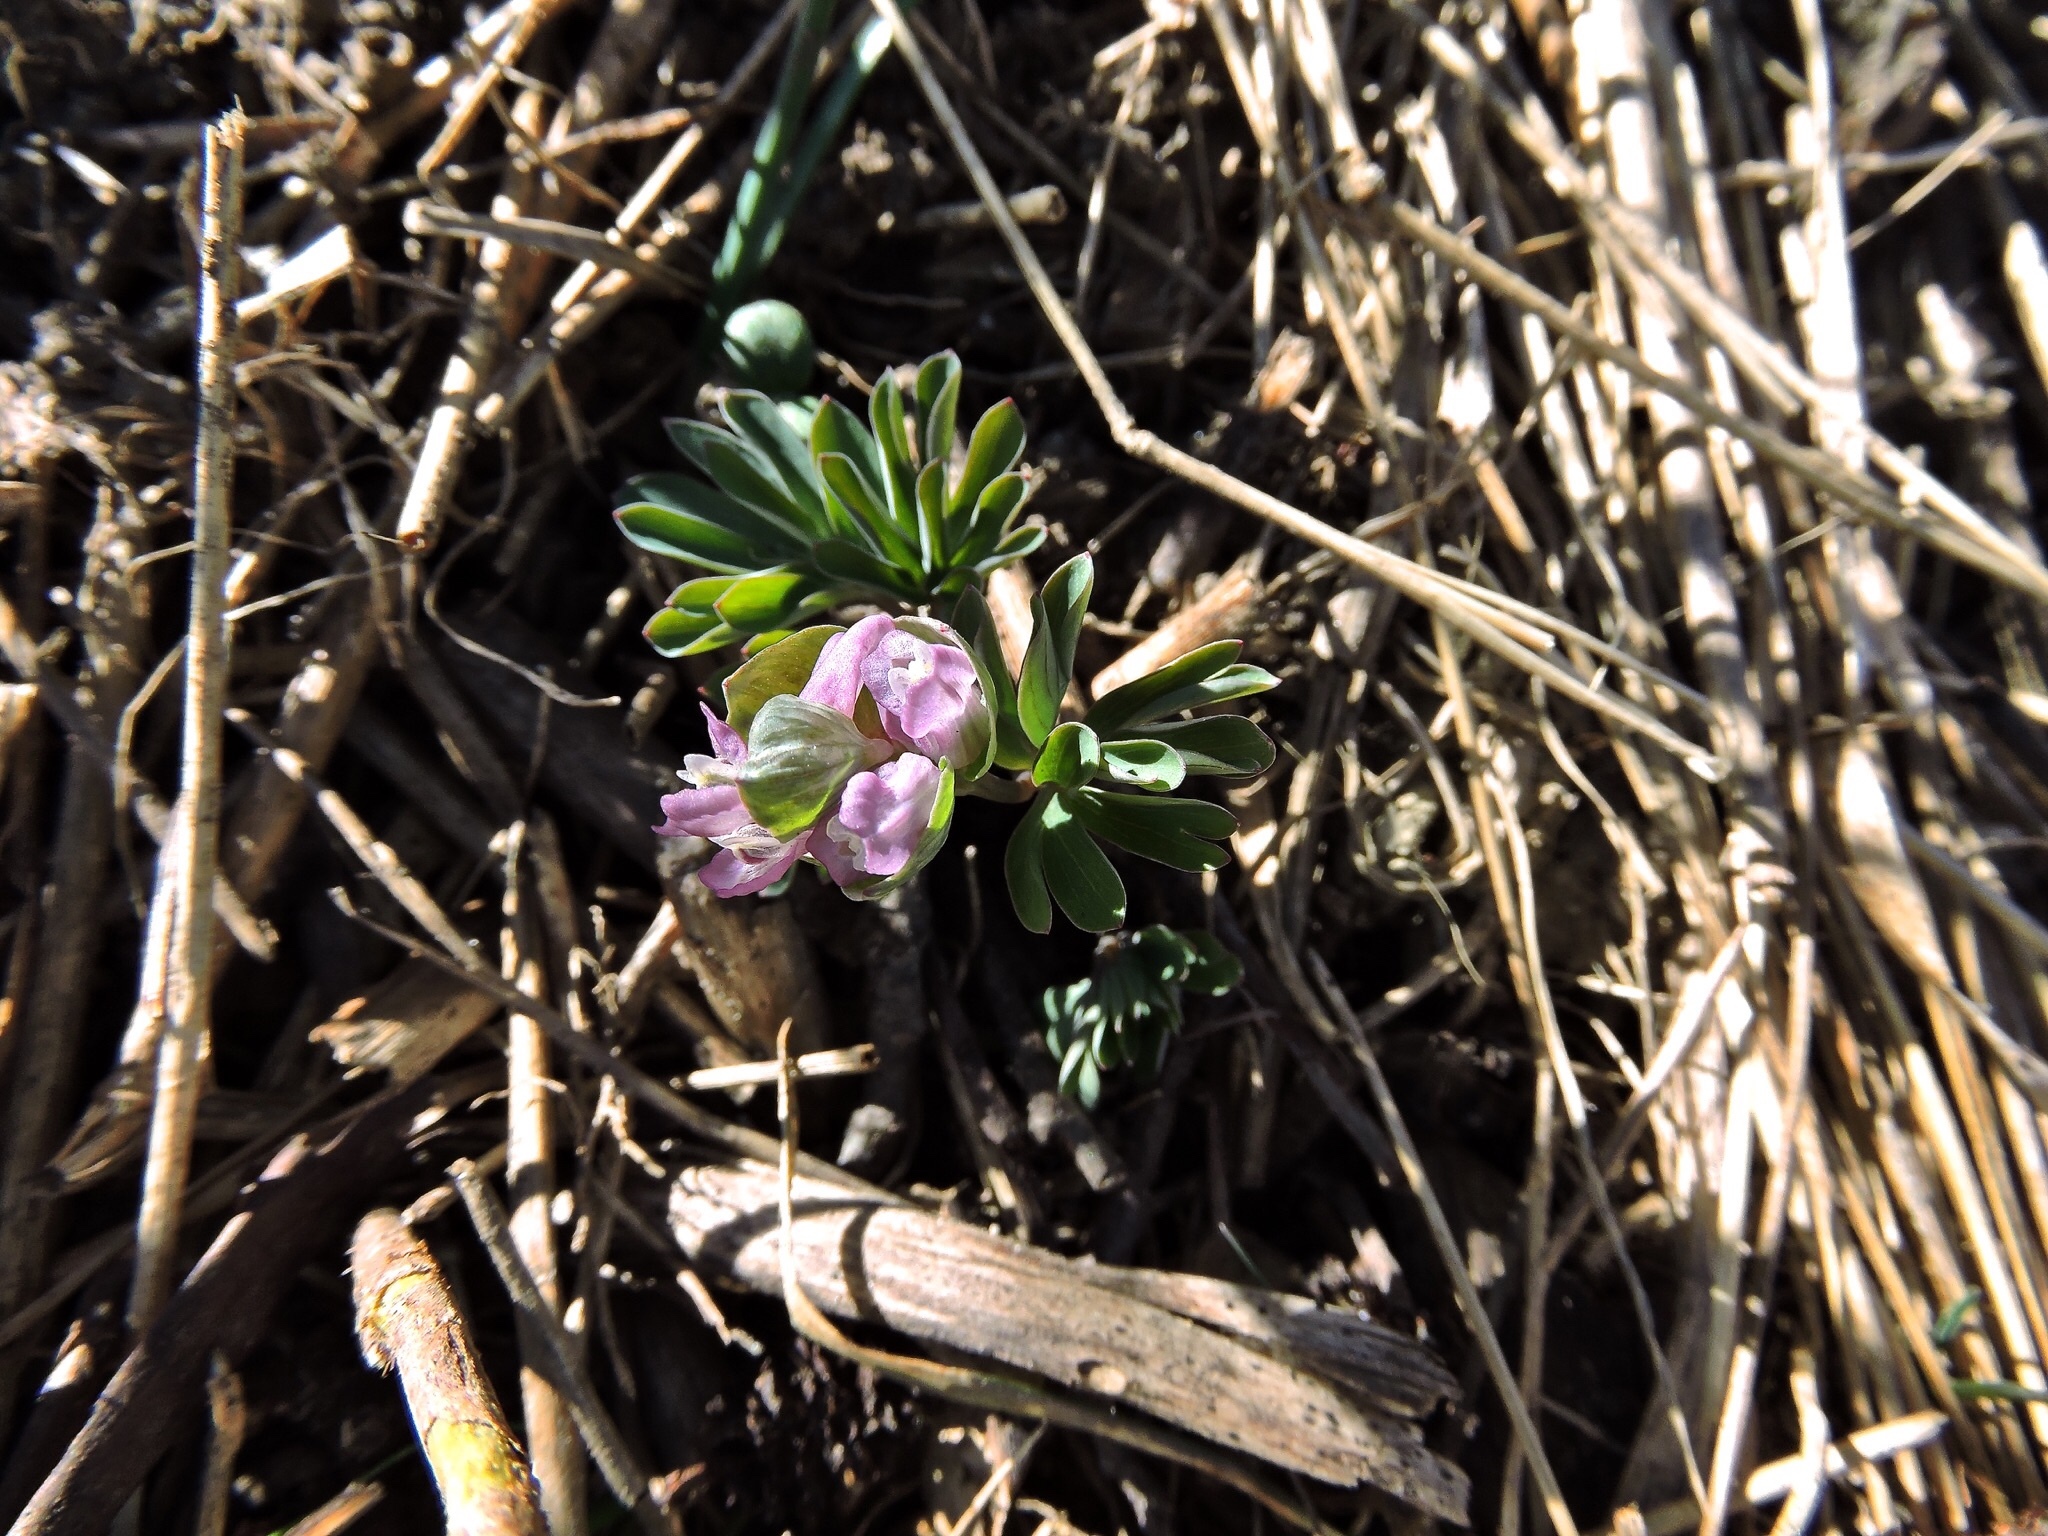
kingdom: Plantae
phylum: Tracheophyta
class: Magnoliopsida
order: Ranunculales
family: Papaveraceae
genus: Corydalis
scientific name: Corydalis intermedia
